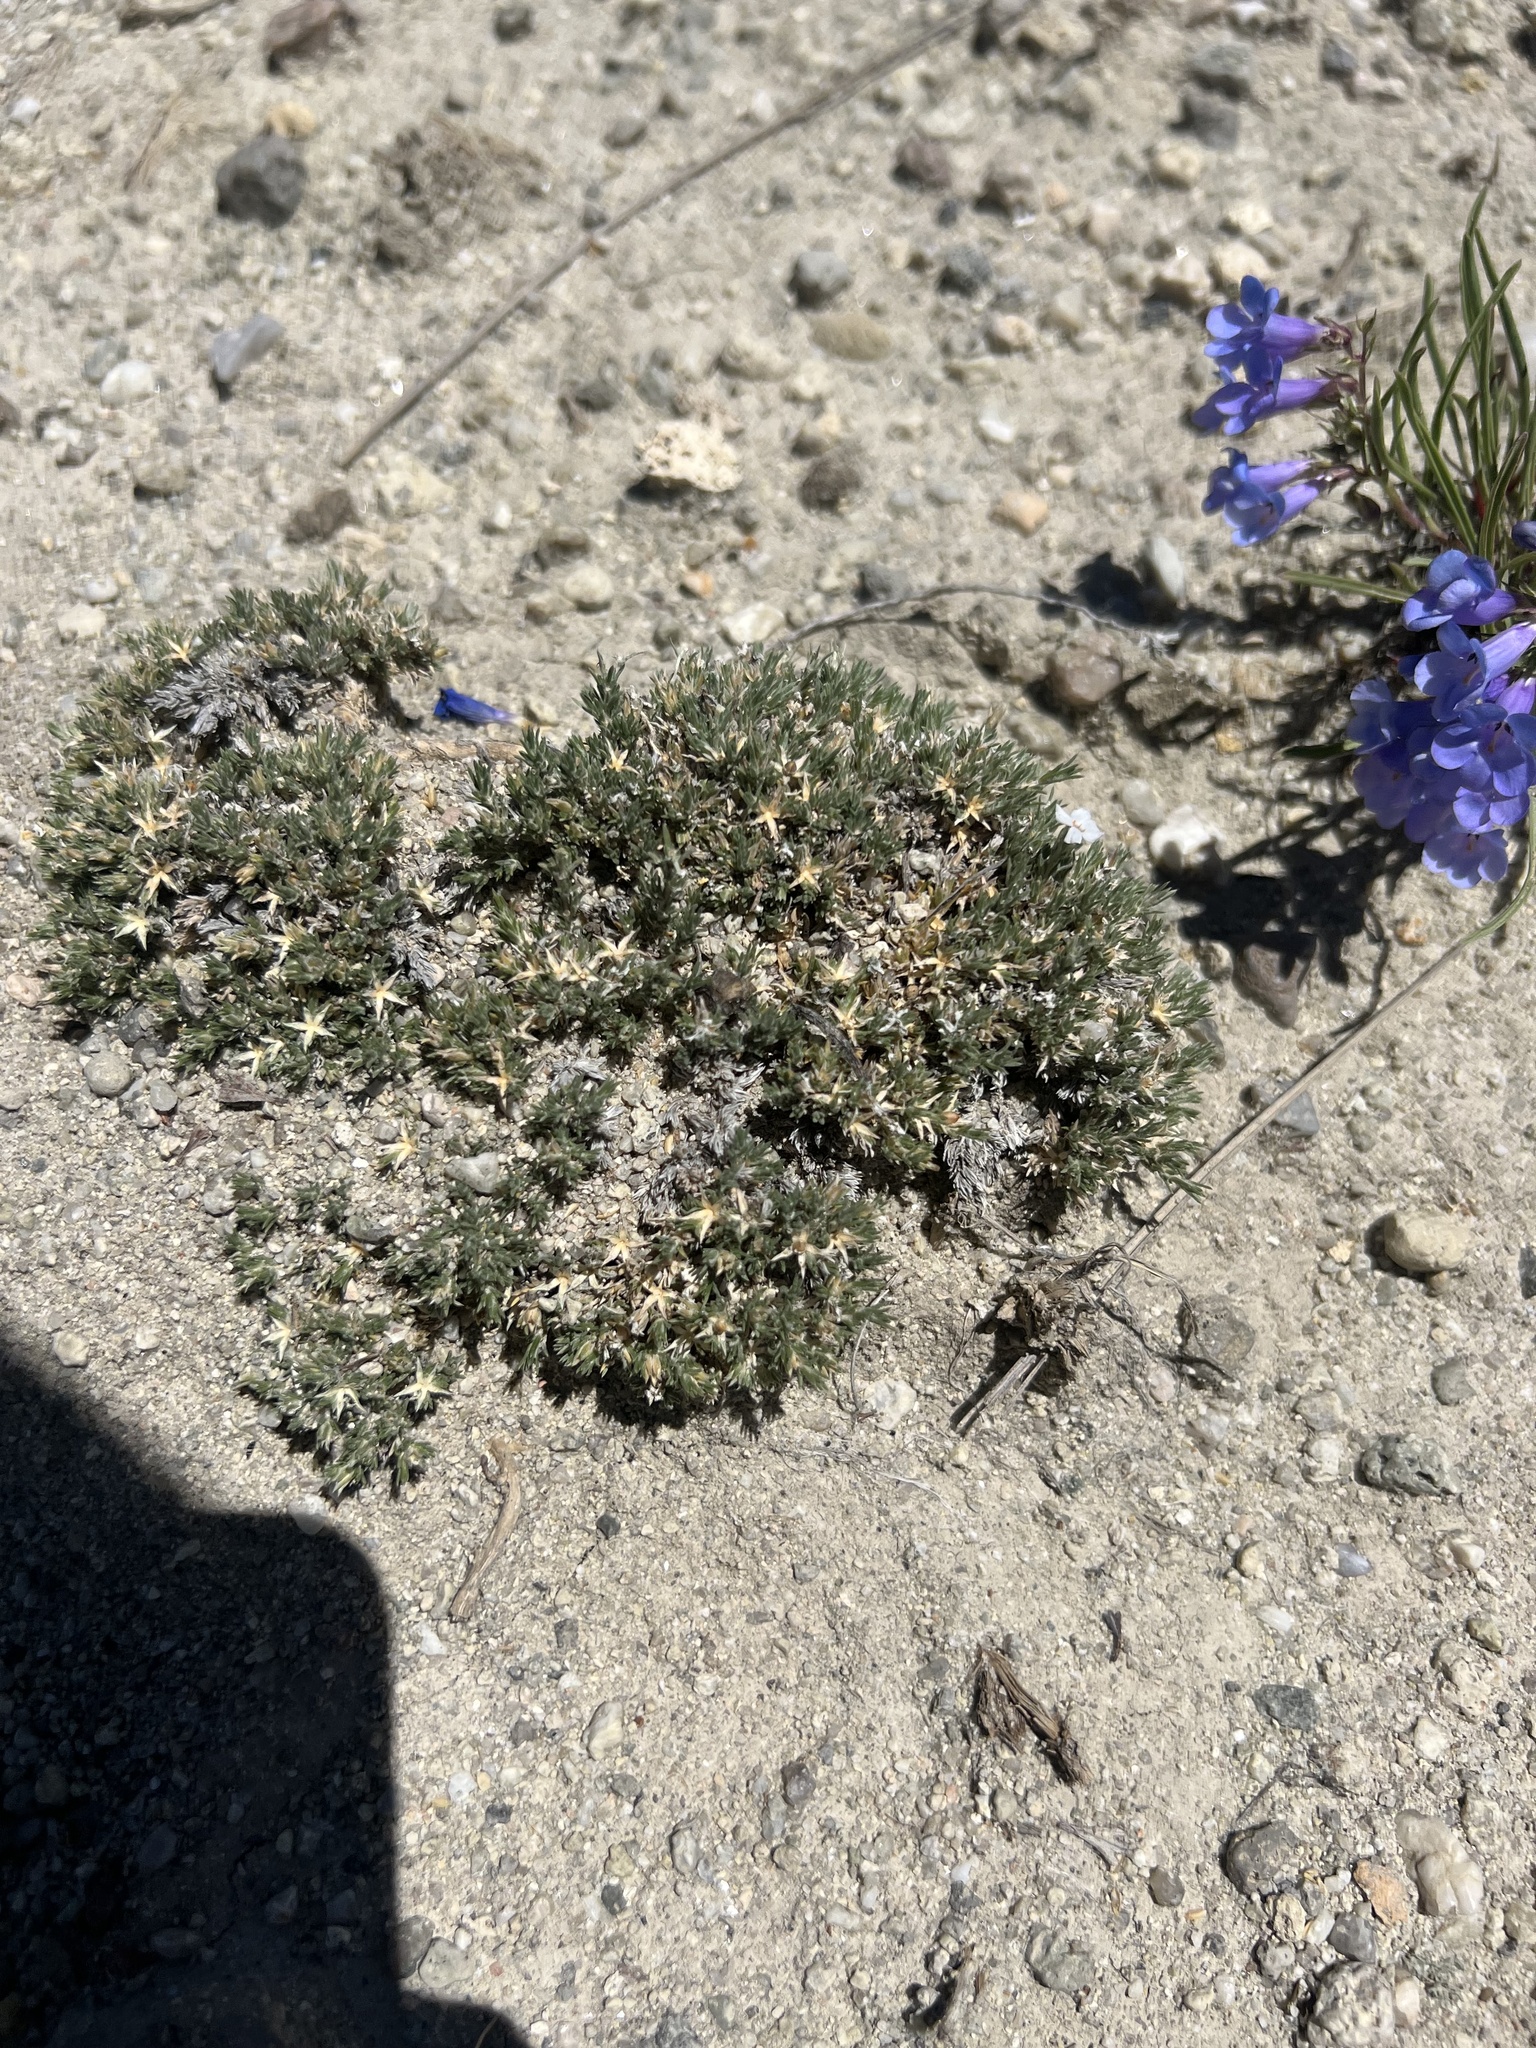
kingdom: Plantae
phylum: Tracheophyta
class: Magnoliopsida
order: Ericales
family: Polemoniaceae
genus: Phlox
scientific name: Phlox hoodii
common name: Moss phlox
